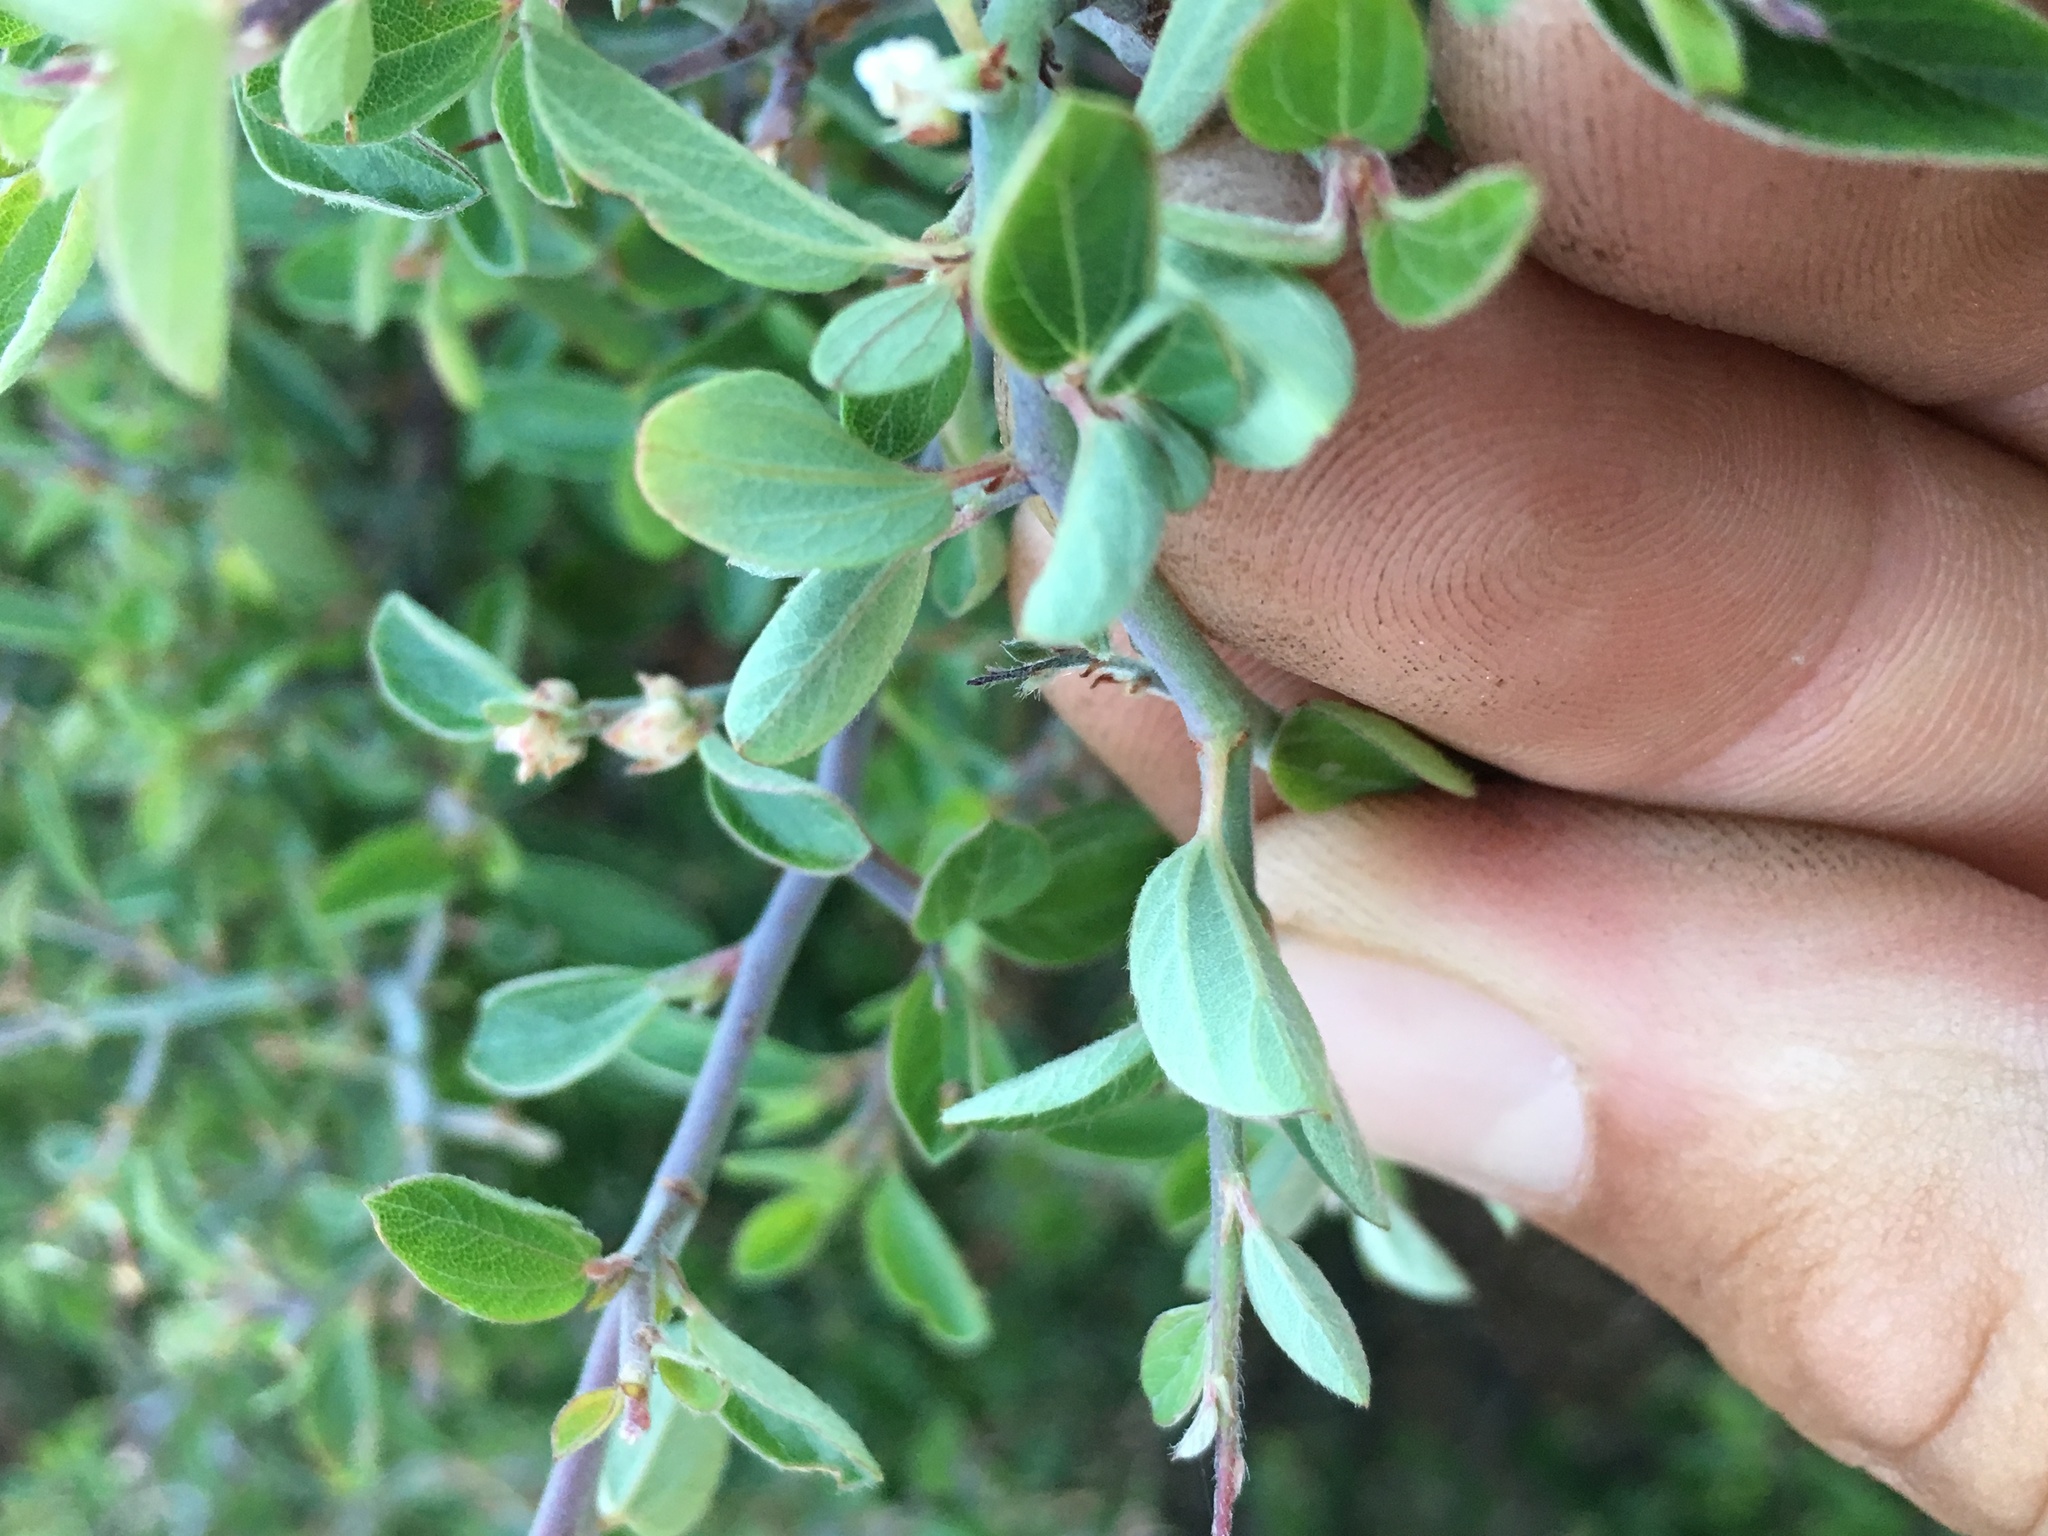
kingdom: Plantae
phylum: Tracheophyta
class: Magnoliopsida
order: Rosales
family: Rhamnaceae
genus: Ceanothus
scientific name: Ceanothus fendleri
